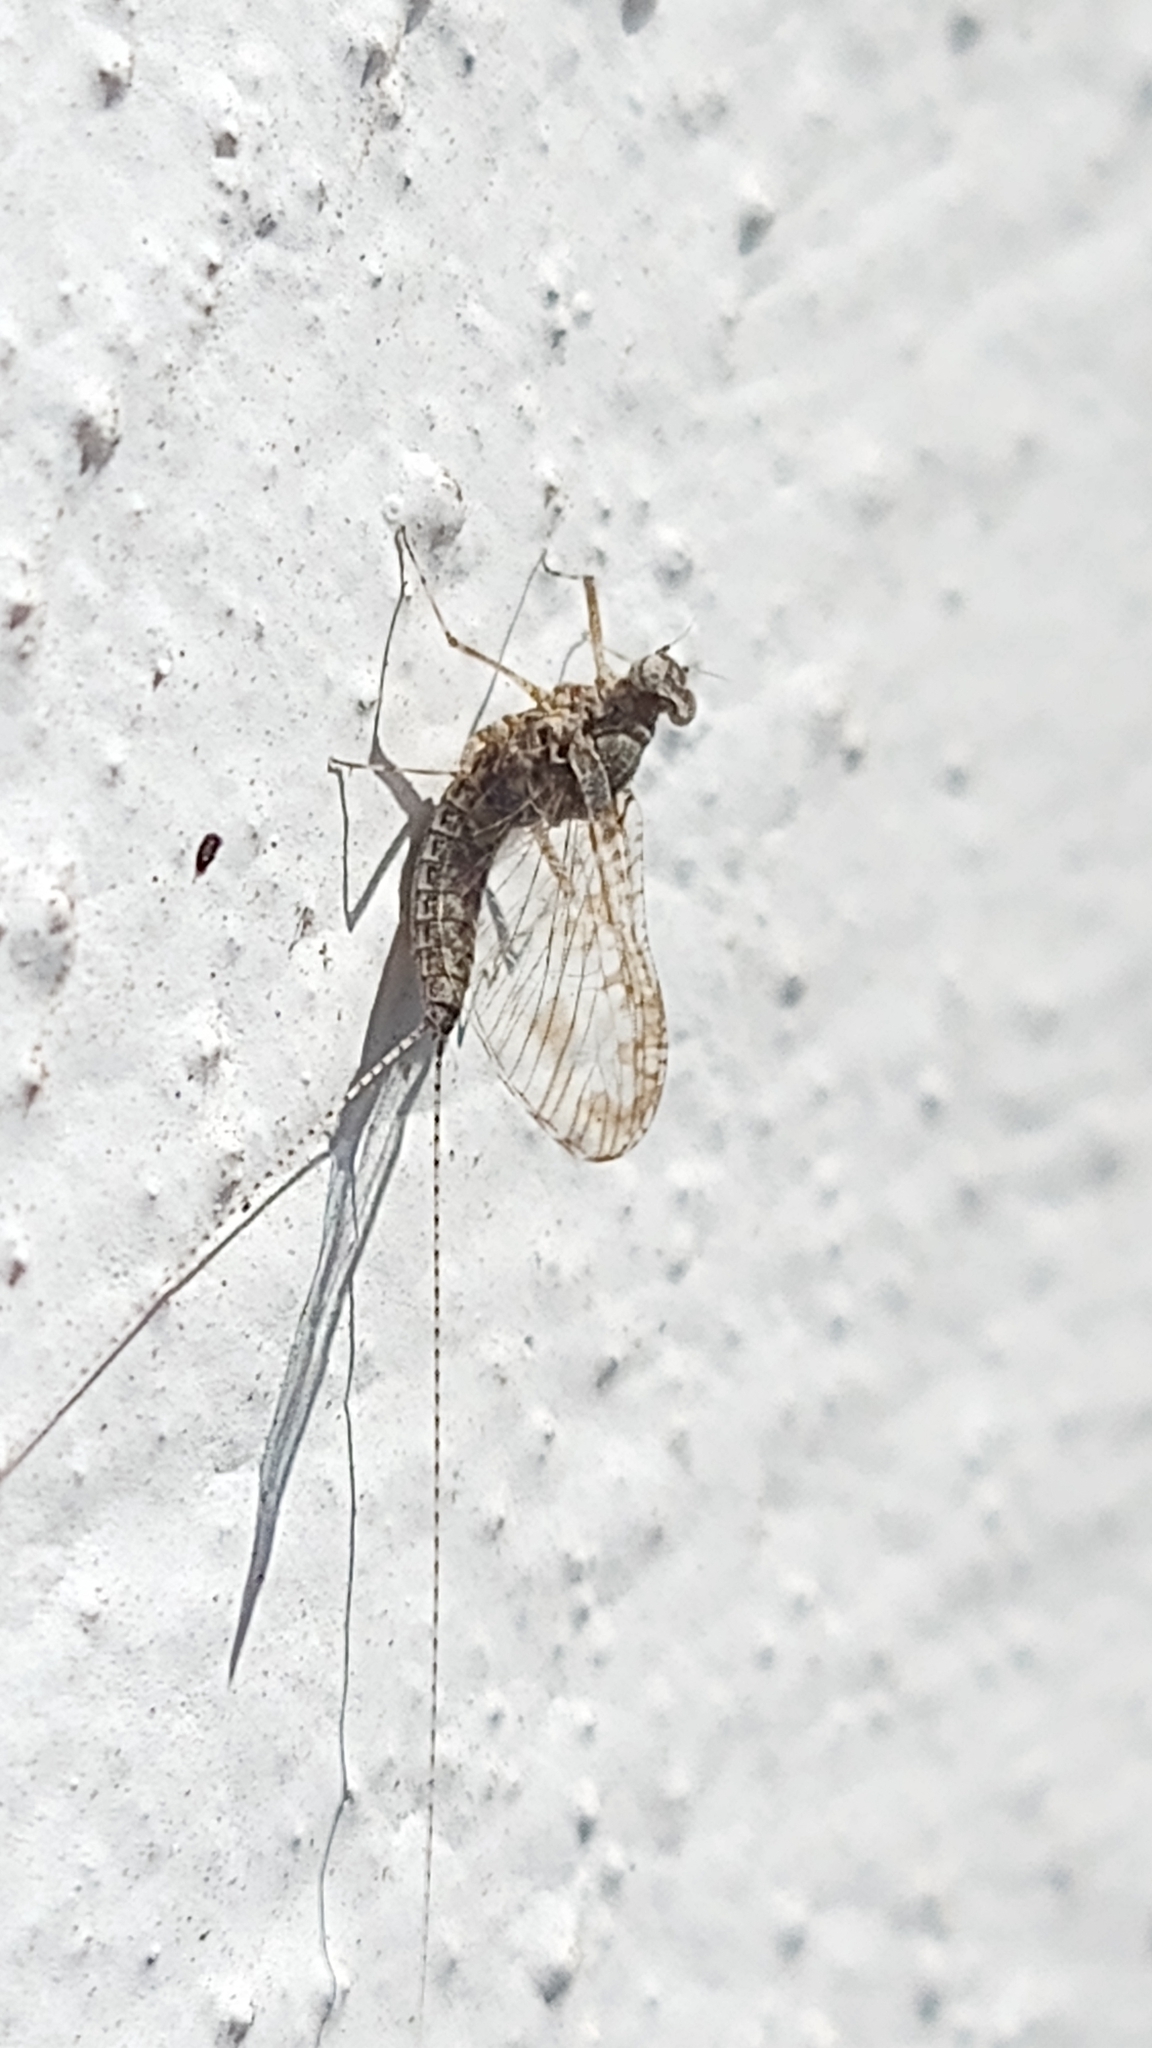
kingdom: Animalia
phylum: Arthropoda
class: Insecta
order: Ephemeroptera
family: Baetidae
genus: Callibaetis
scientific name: Callibaetis pictus
